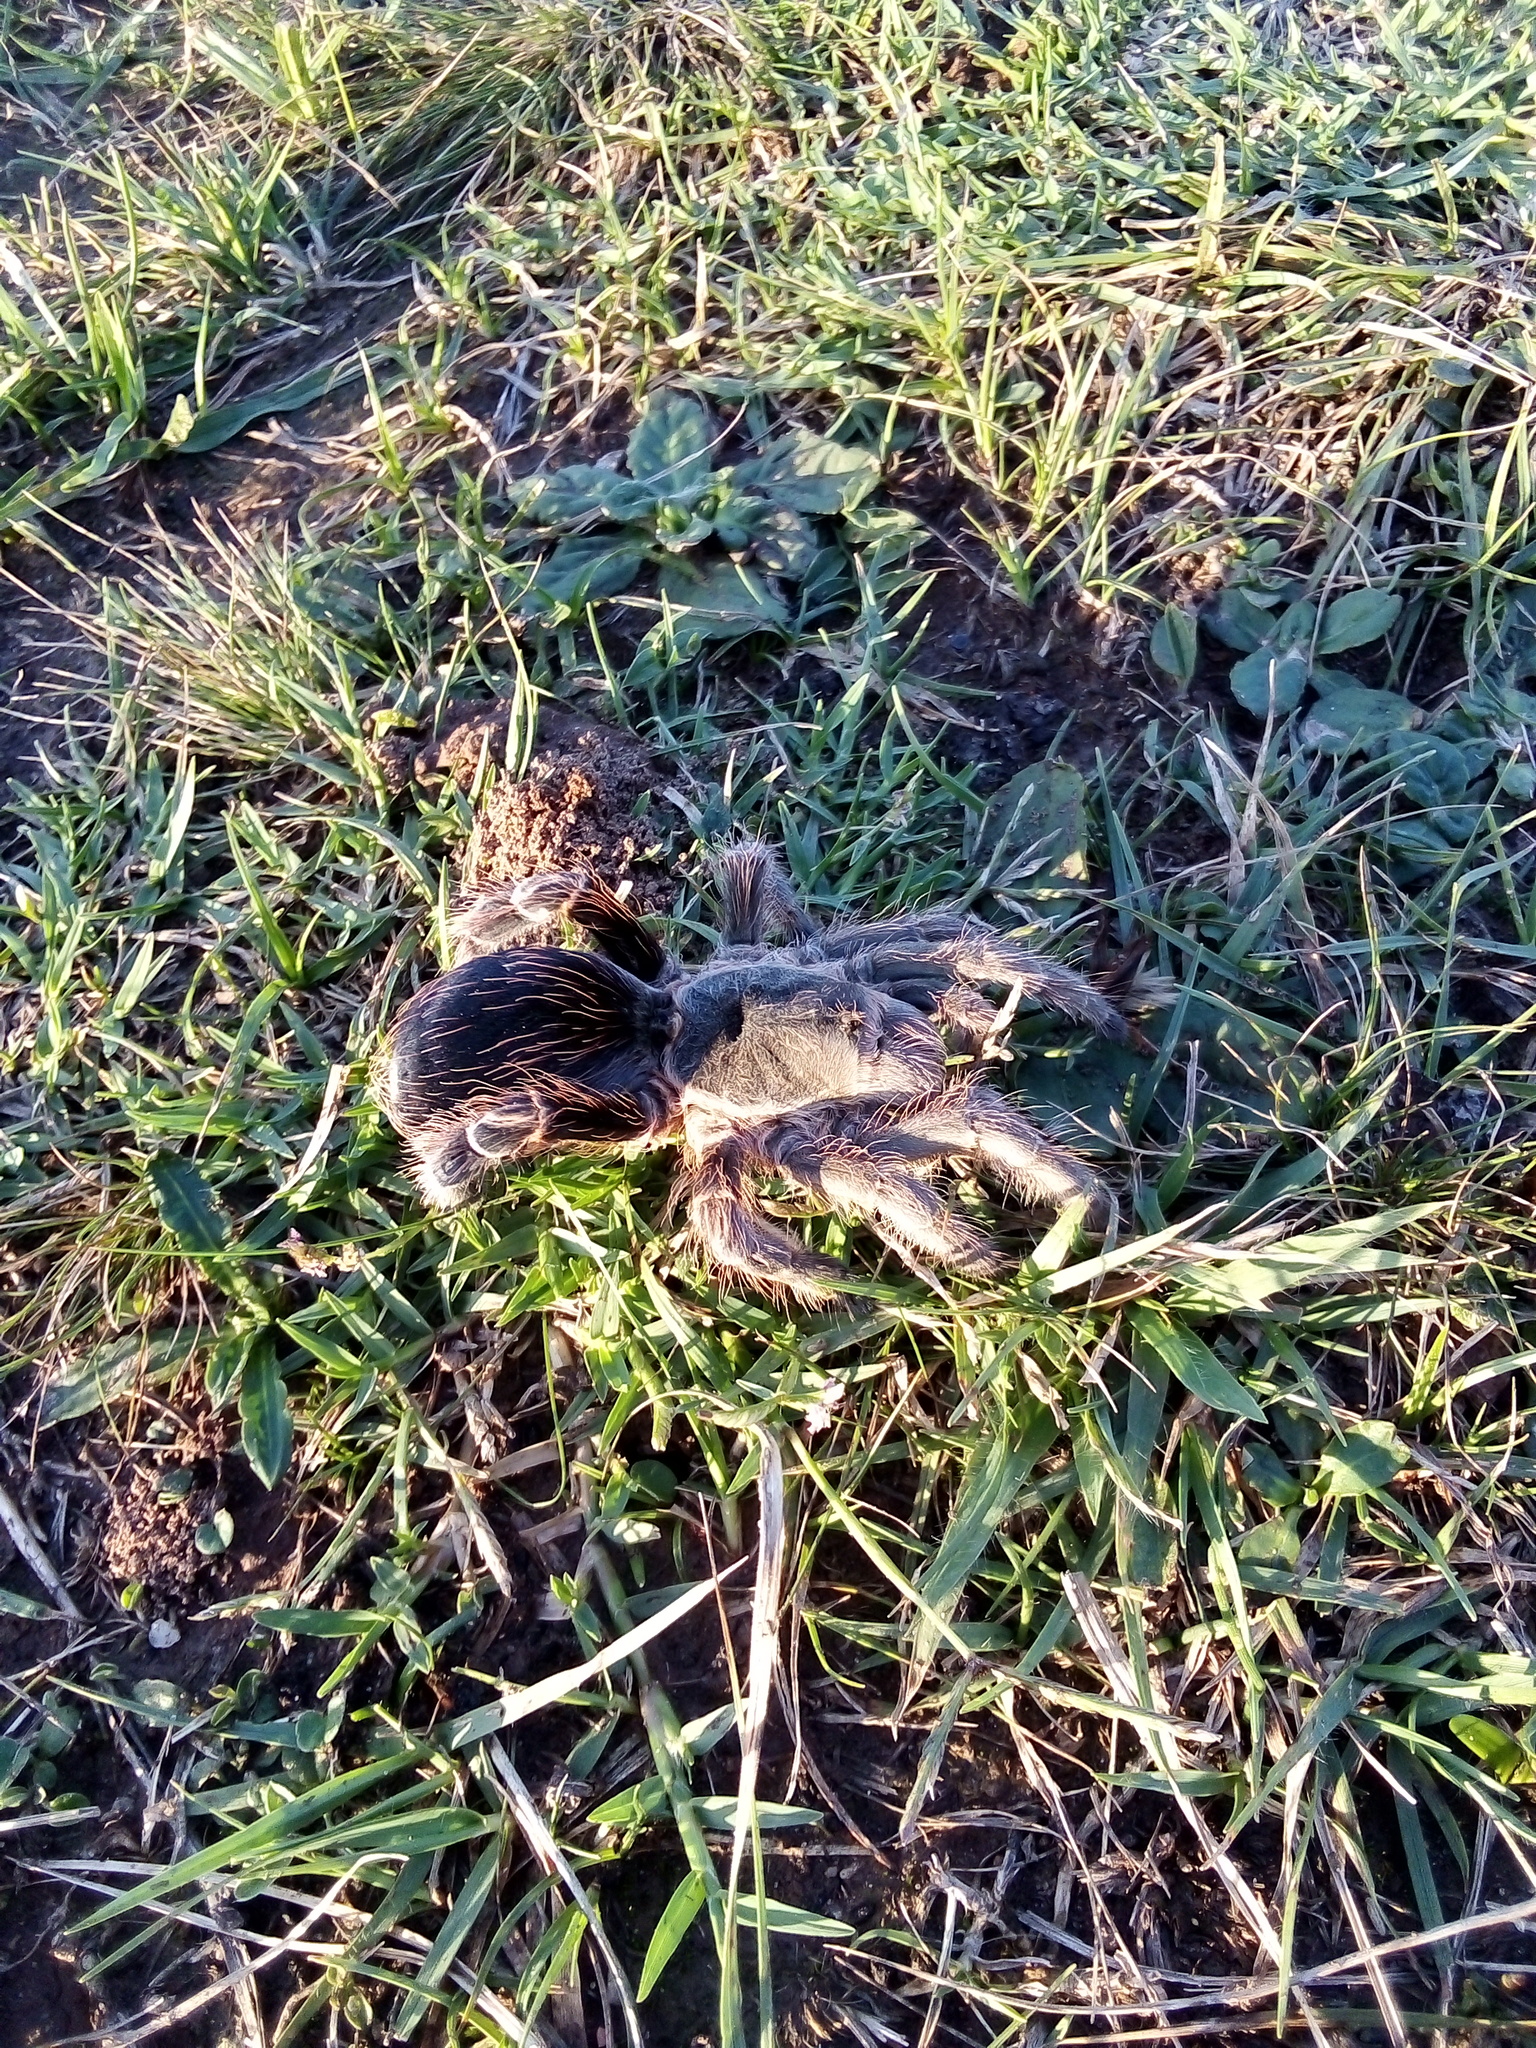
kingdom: Animalia
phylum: Arthropoda
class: Arachnida
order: Araneae
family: Theraphosidae
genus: Eupalaestrus
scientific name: Eupalaestrus weijenberghi
